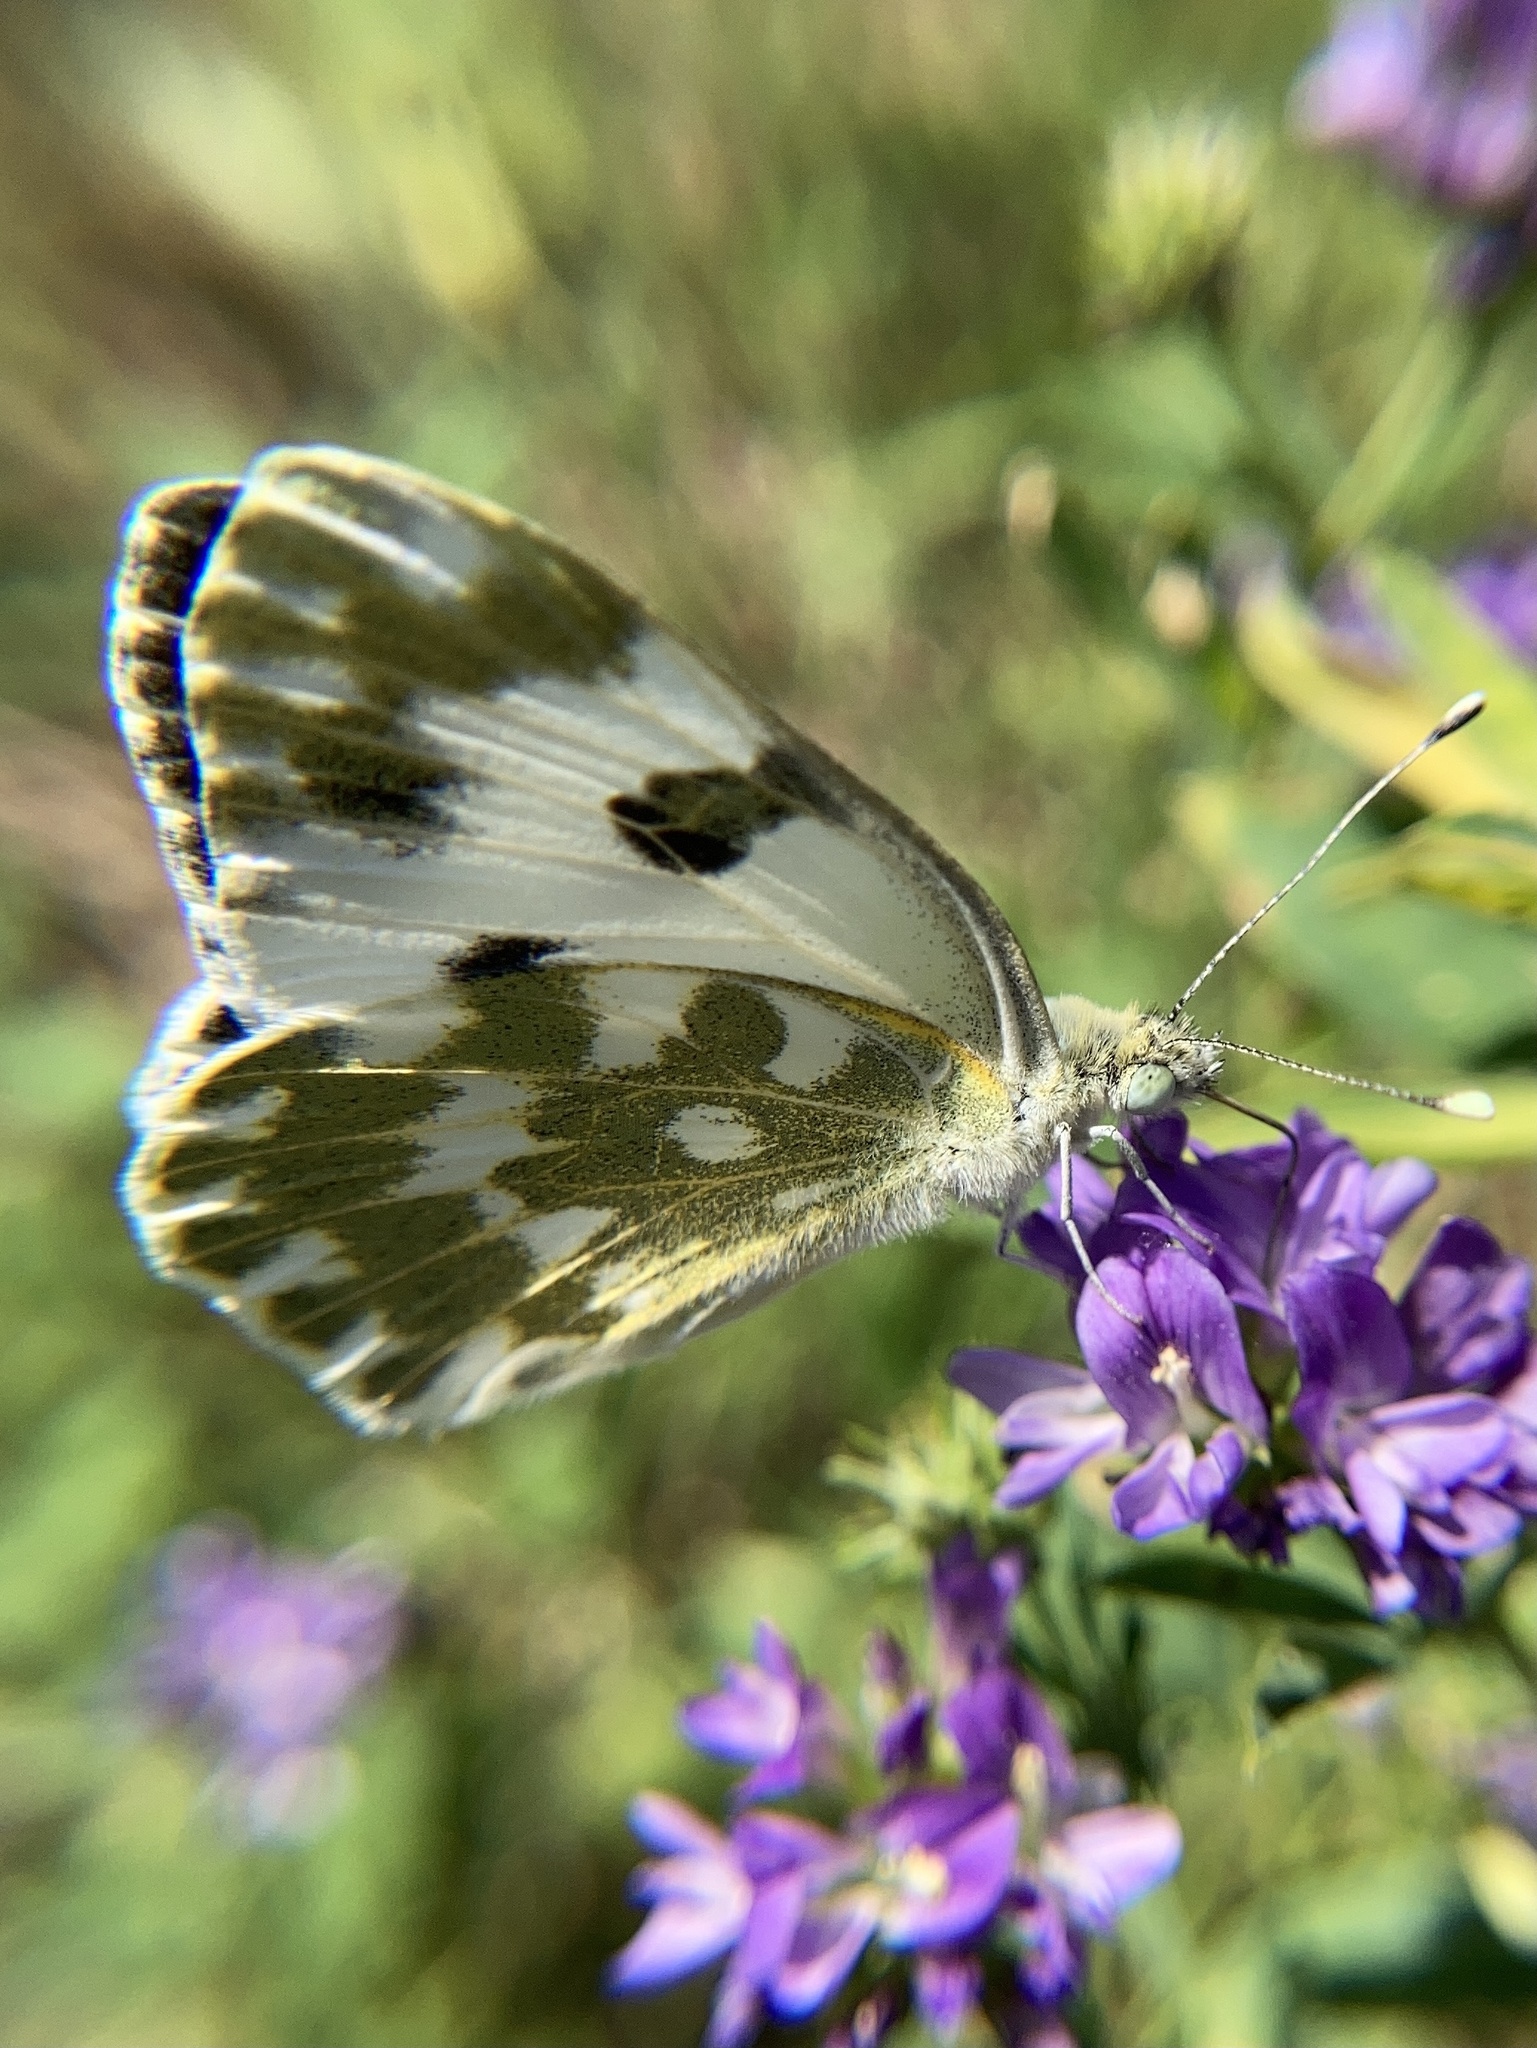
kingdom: Animalia
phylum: Arthropoda
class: Insecta
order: Lepidoptera
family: Pieridae
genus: Pontia
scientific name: Pontia edusa
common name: Eastern bath white
